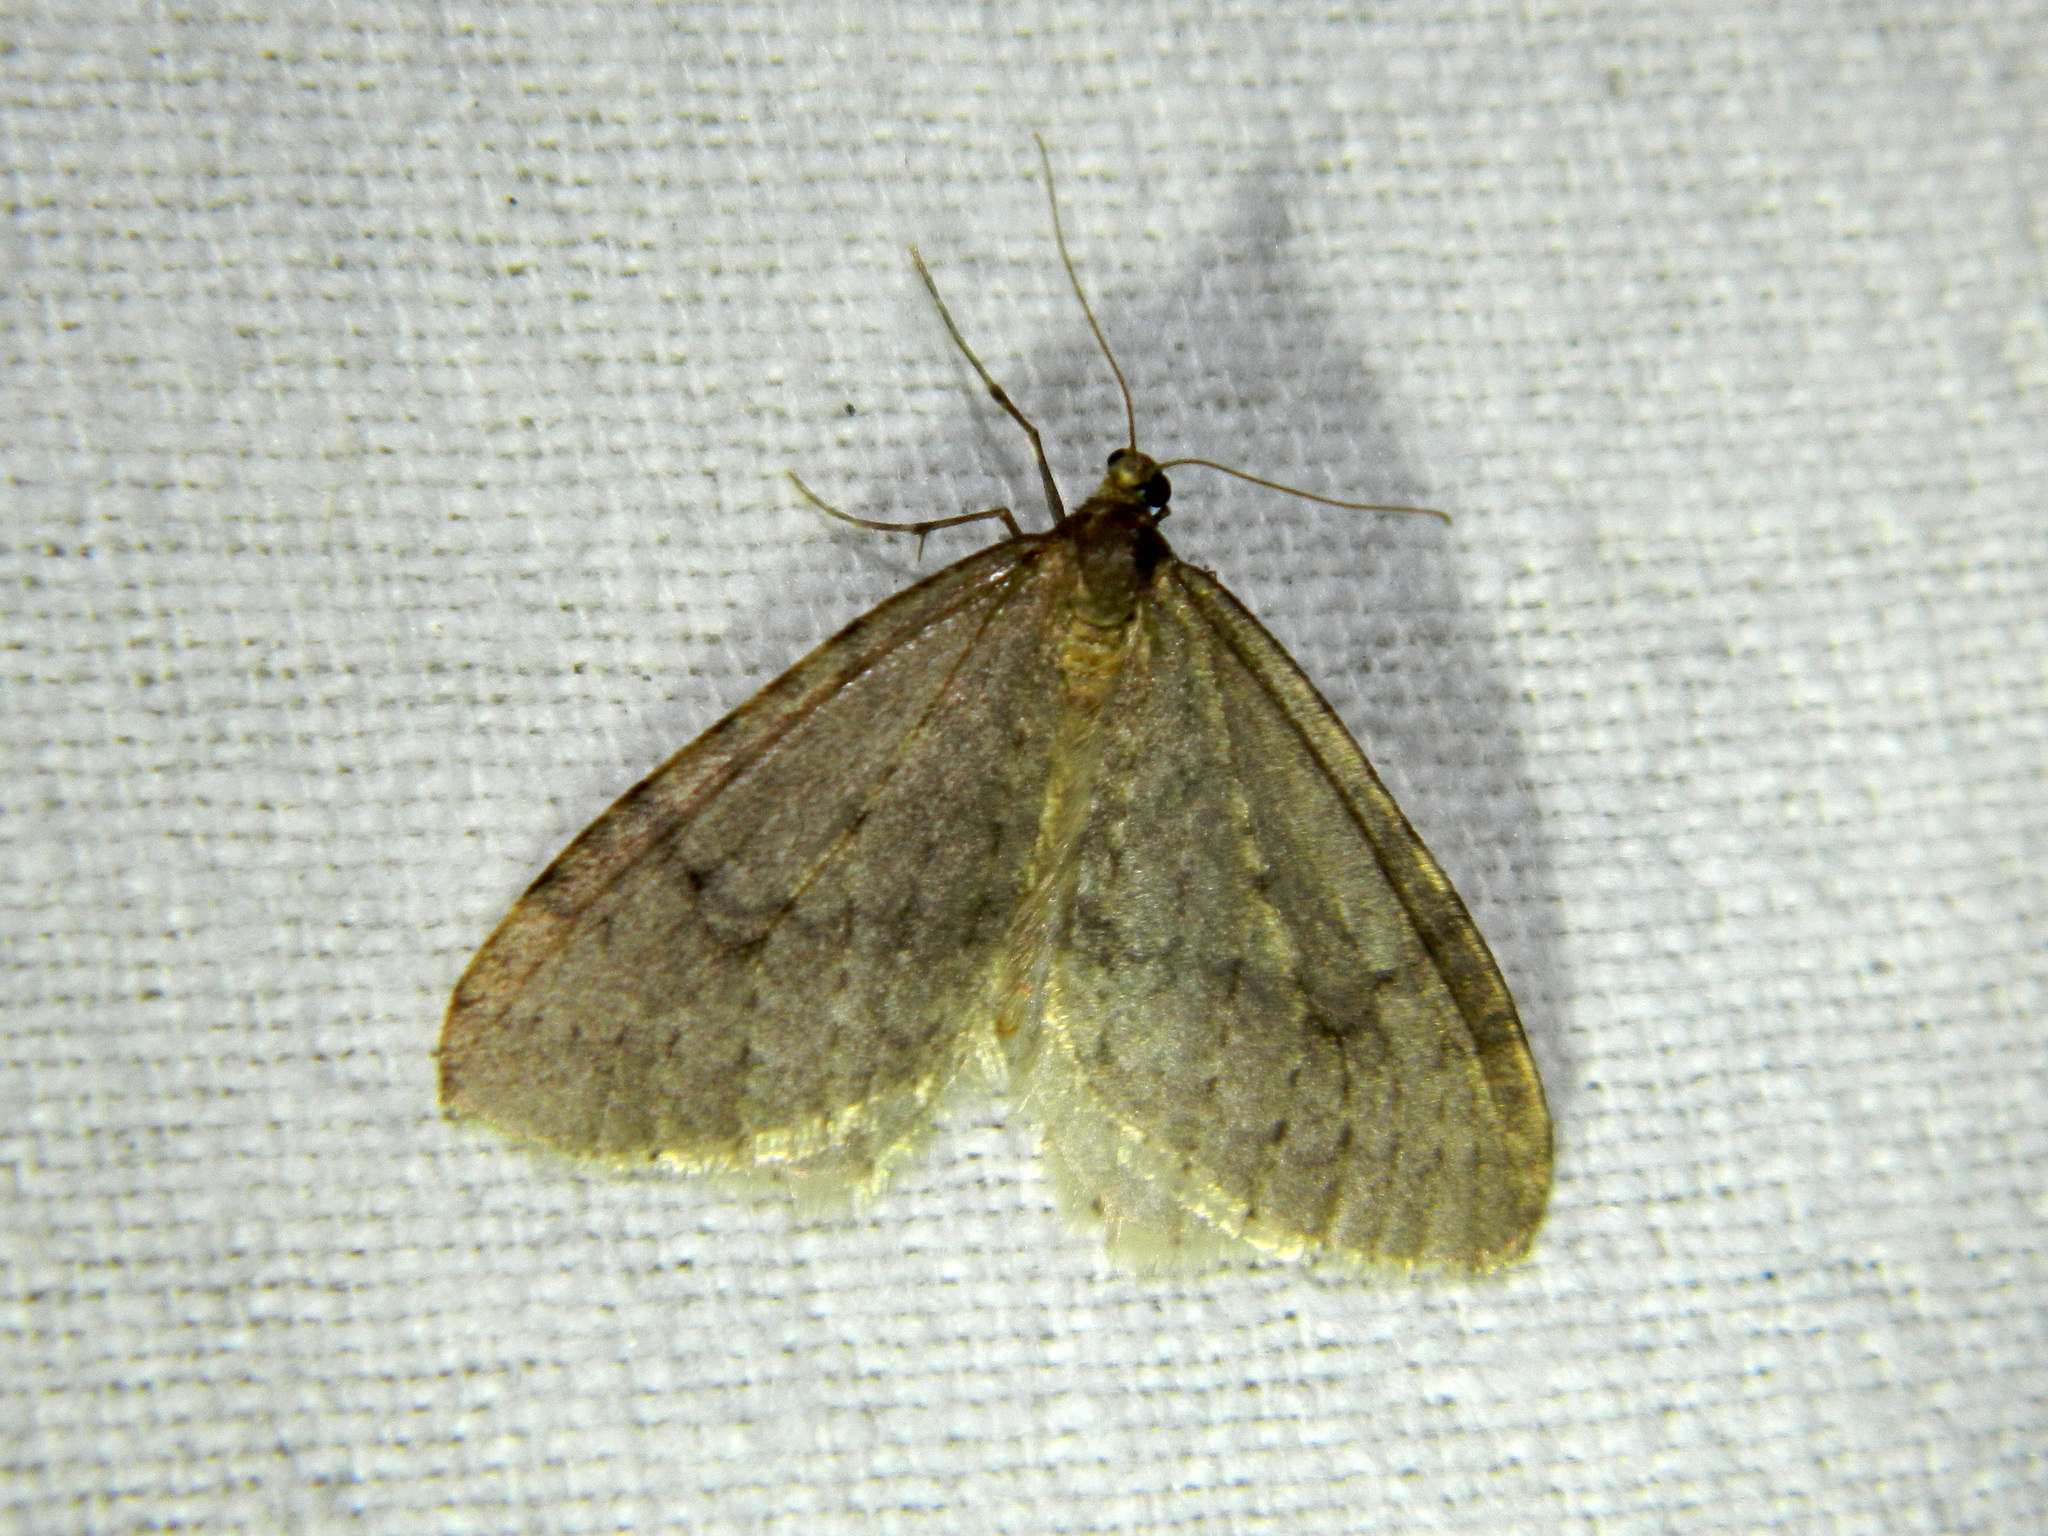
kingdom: Animalia
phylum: Arthropoda
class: Insecta
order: Lepidoptera
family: Geometridae
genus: Operophtera
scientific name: Operophtera bruceata
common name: Bruce spanworm
